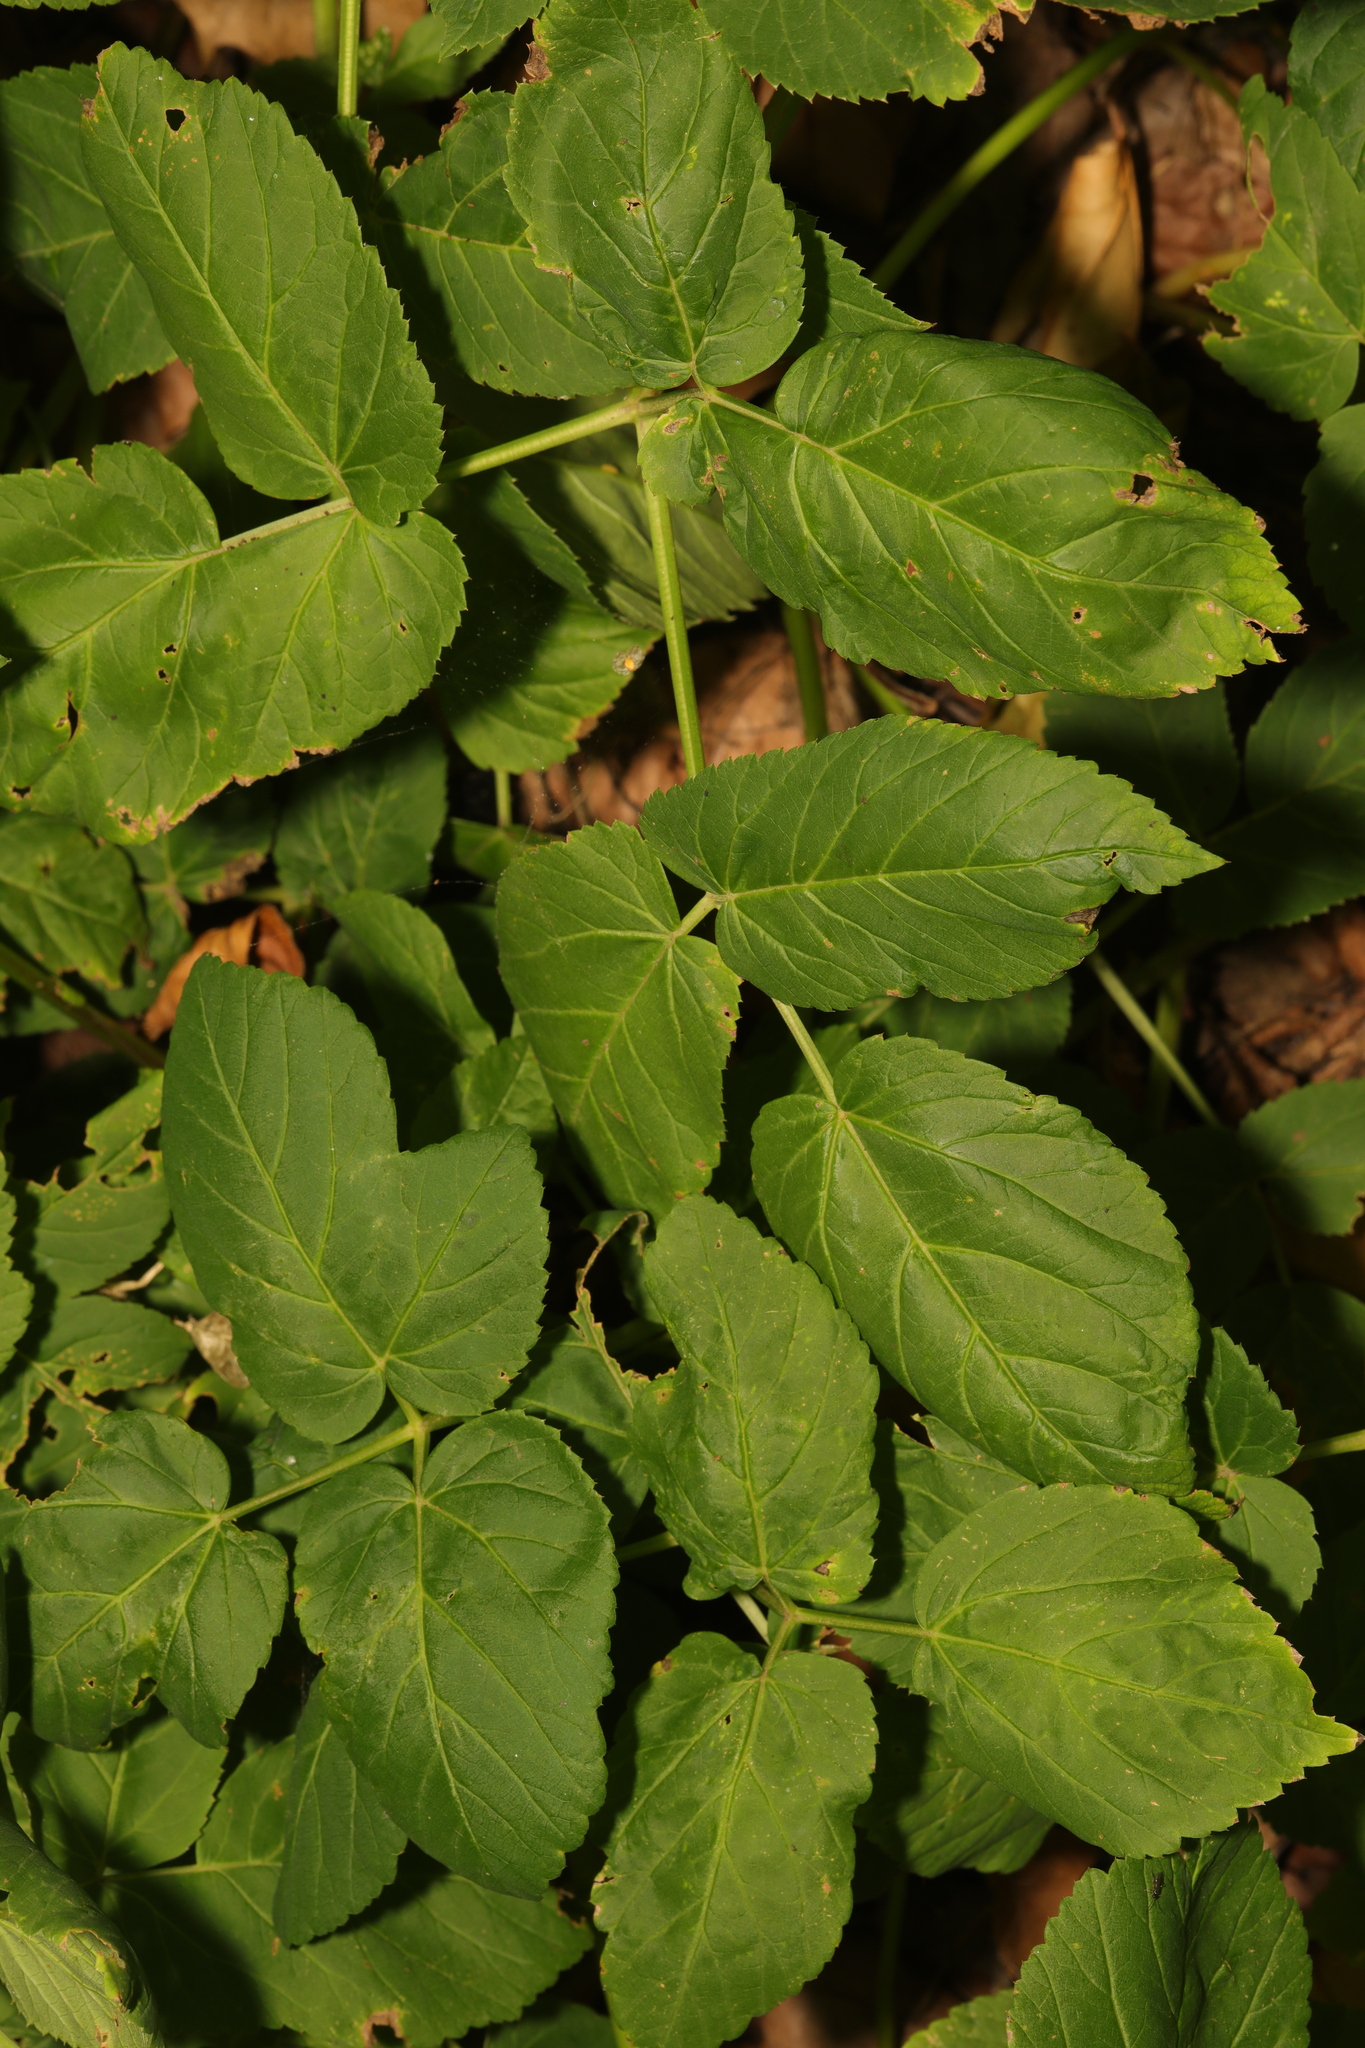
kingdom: Plantae
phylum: Tracheophyta
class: Magnoliopsida
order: Apiales
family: Apiaceae
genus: Aegopodium
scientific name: Aegopodium podagraria
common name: Ground-elder
